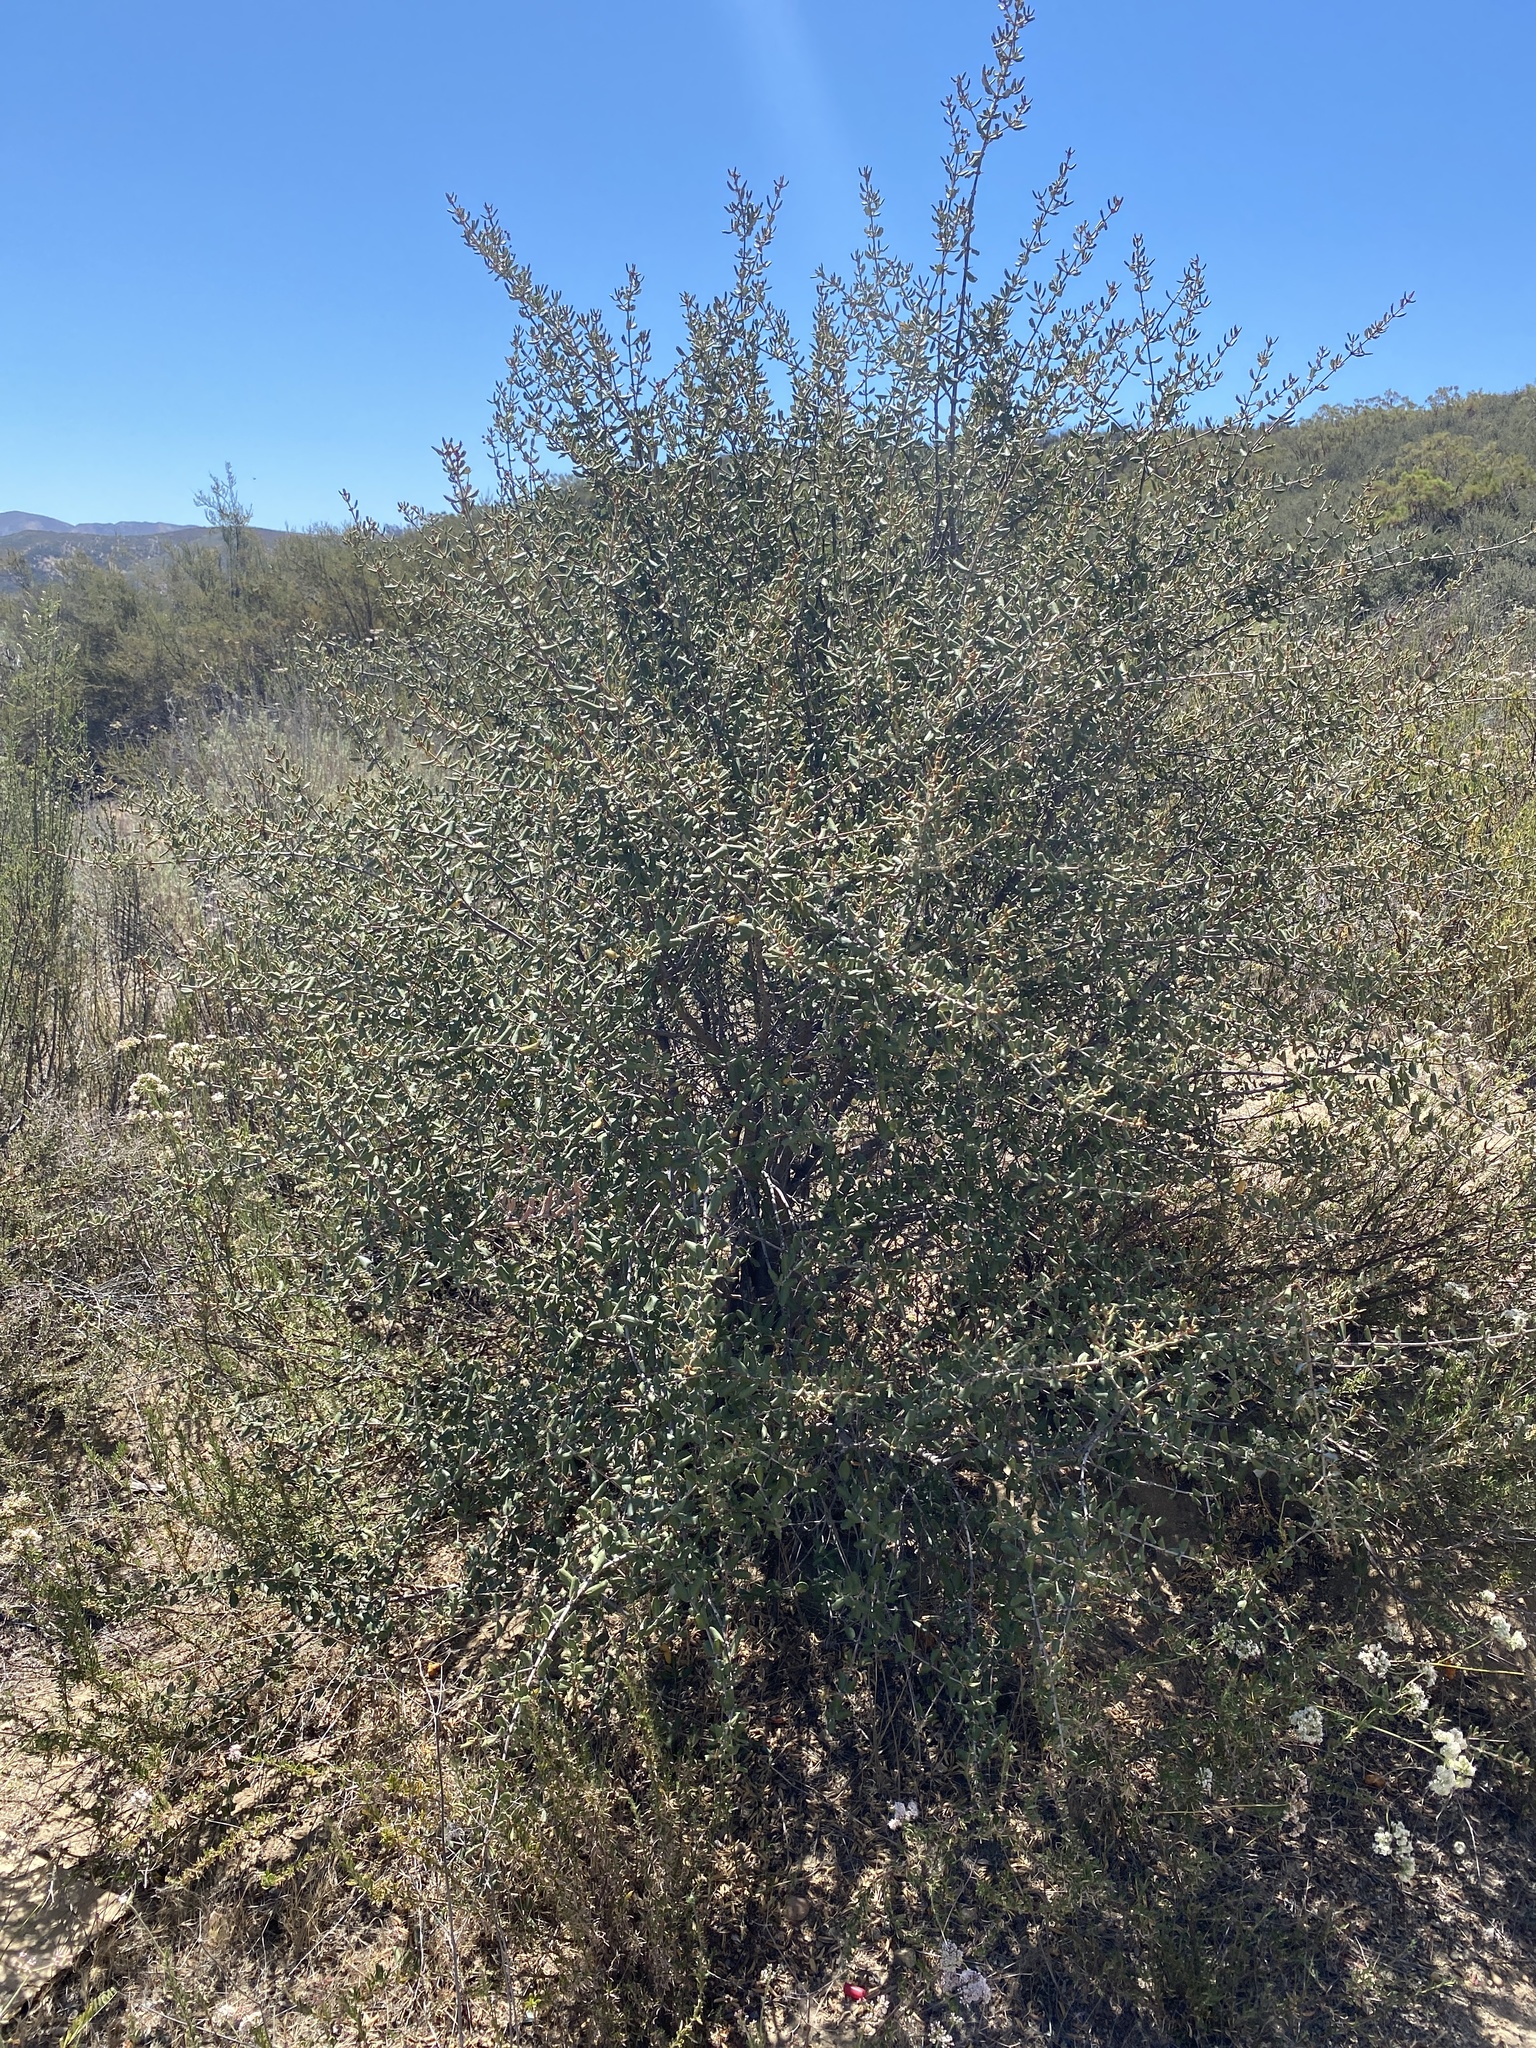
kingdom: Plantae
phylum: Tracheophyta
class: Magnoliopsida
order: Rosales
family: Rhamnaceae
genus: Ceanothus
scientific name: Ceanothus crassifolius
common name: Hoaryleaf ceanothus
